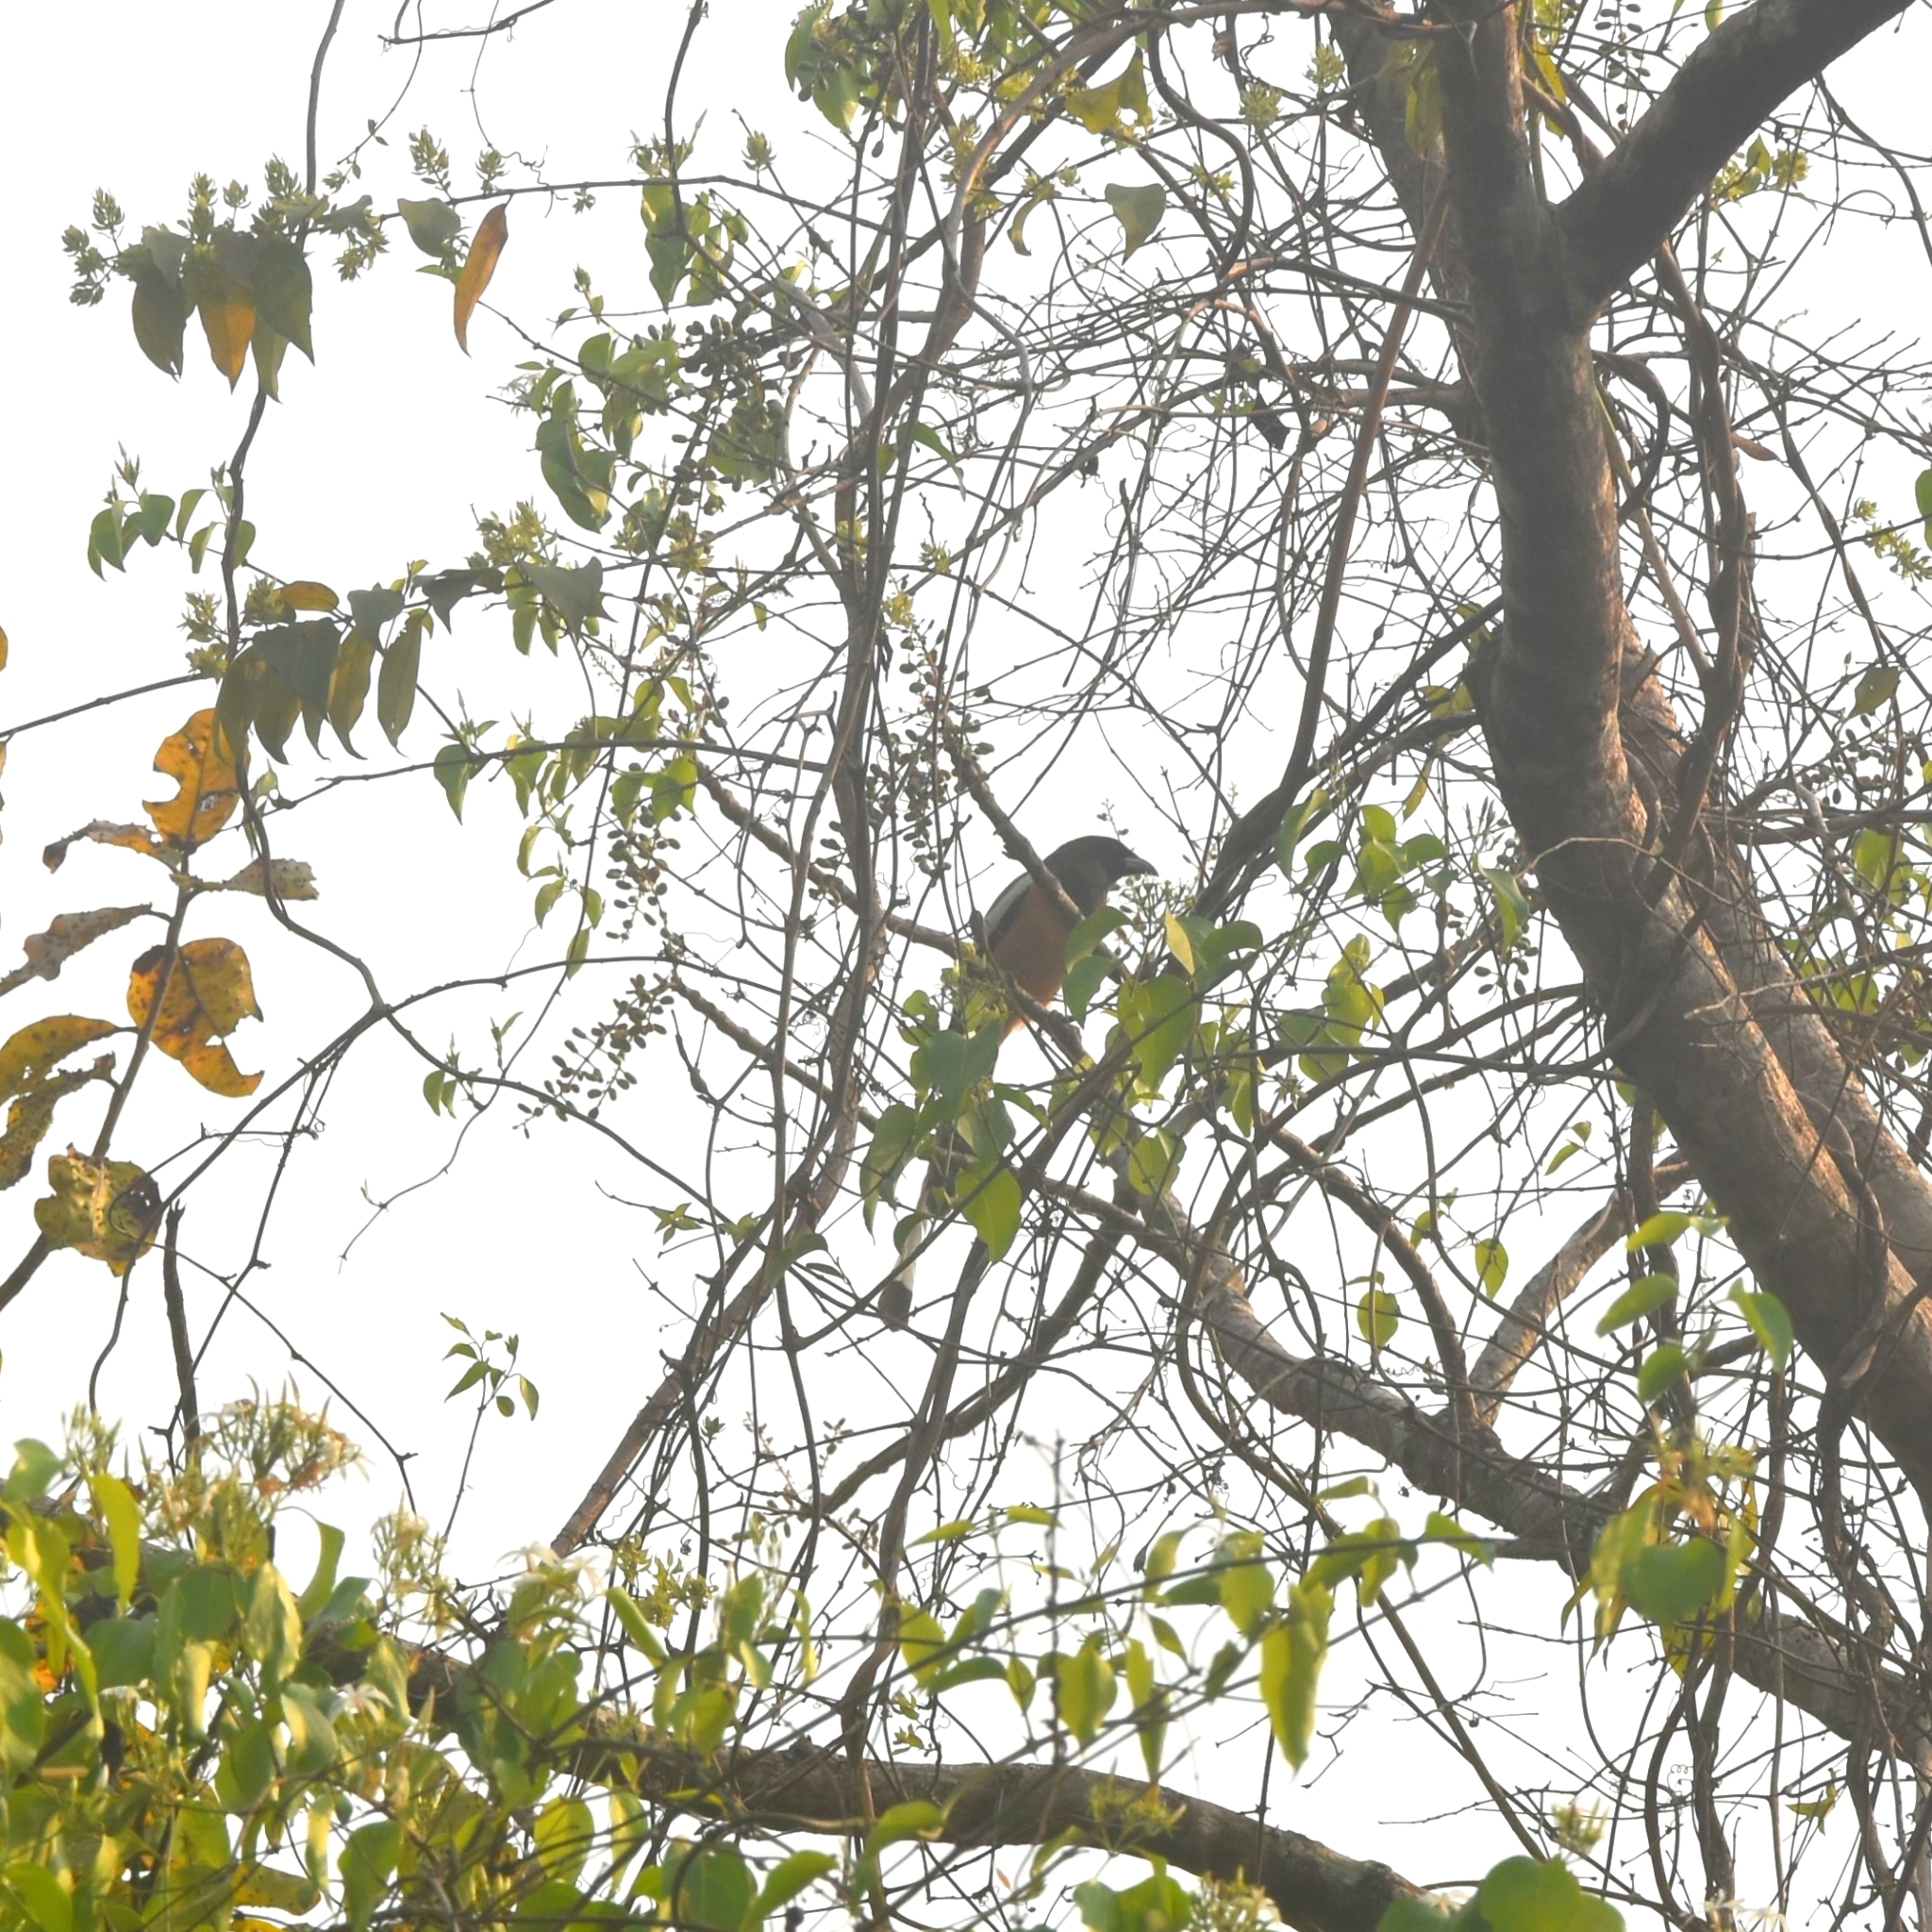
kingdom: Animalia
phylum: Chordata
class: Aves
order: Passeriformes
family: Corvidae
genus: Dendrocitta
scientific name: Dendrocitta vagabunda
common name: Rufous treepie
